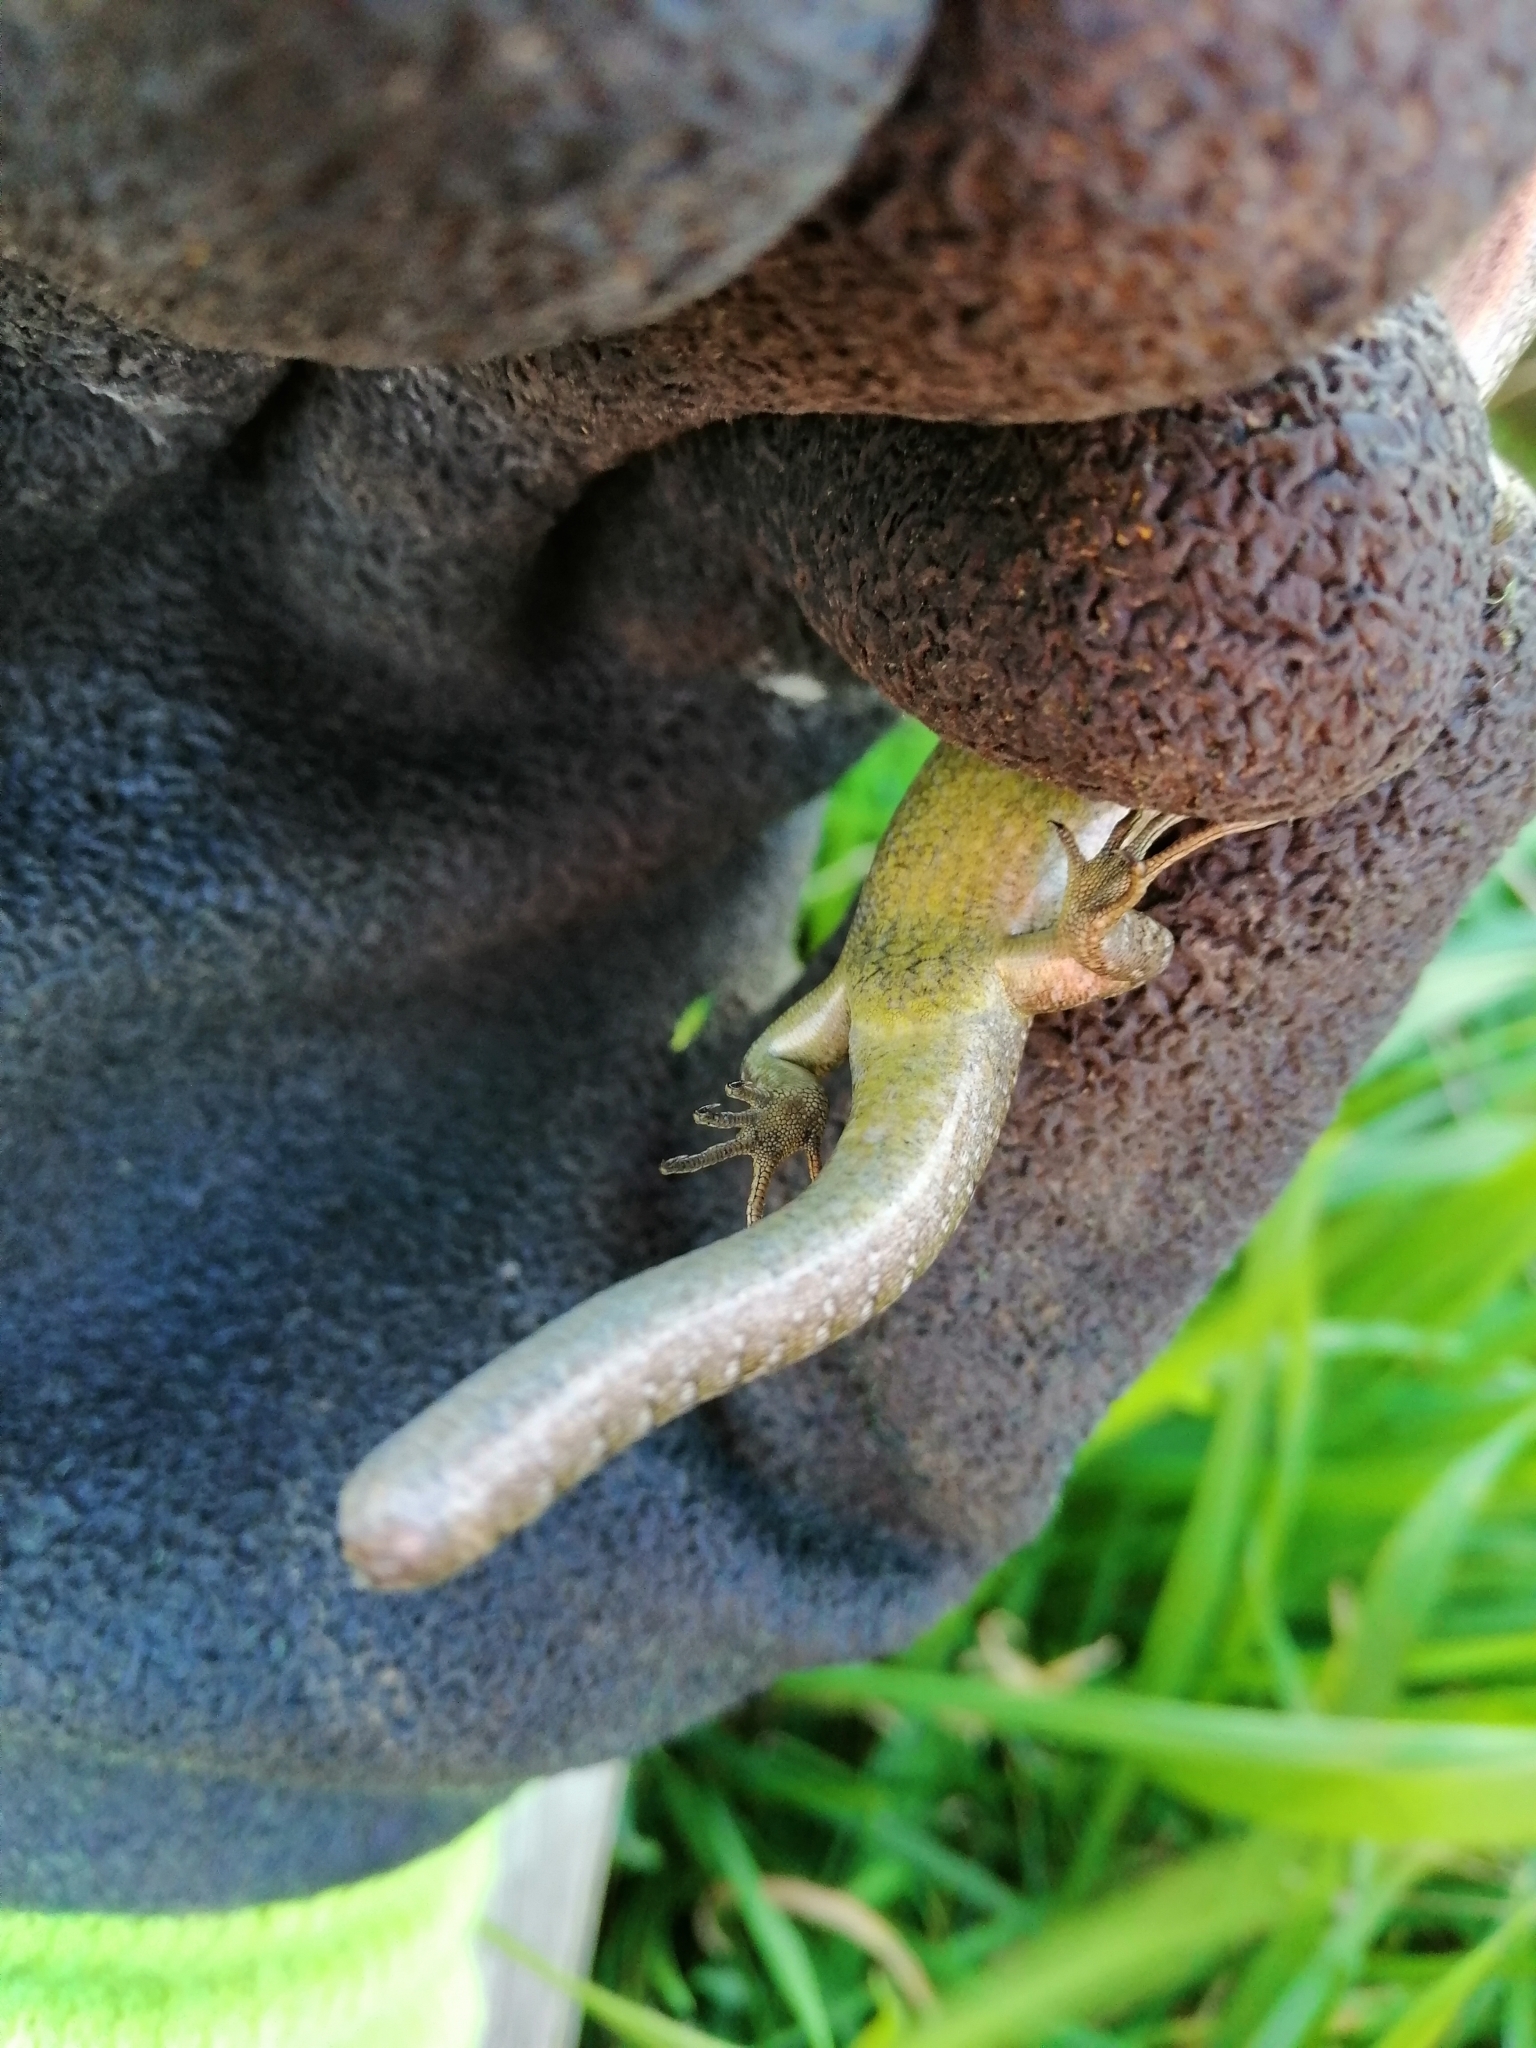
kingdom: Animalia
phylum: Chordata
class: Squamata
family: Scincidae
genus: Oligosoma
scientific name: Oligosoma polychroma
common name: Common new zealand skink
